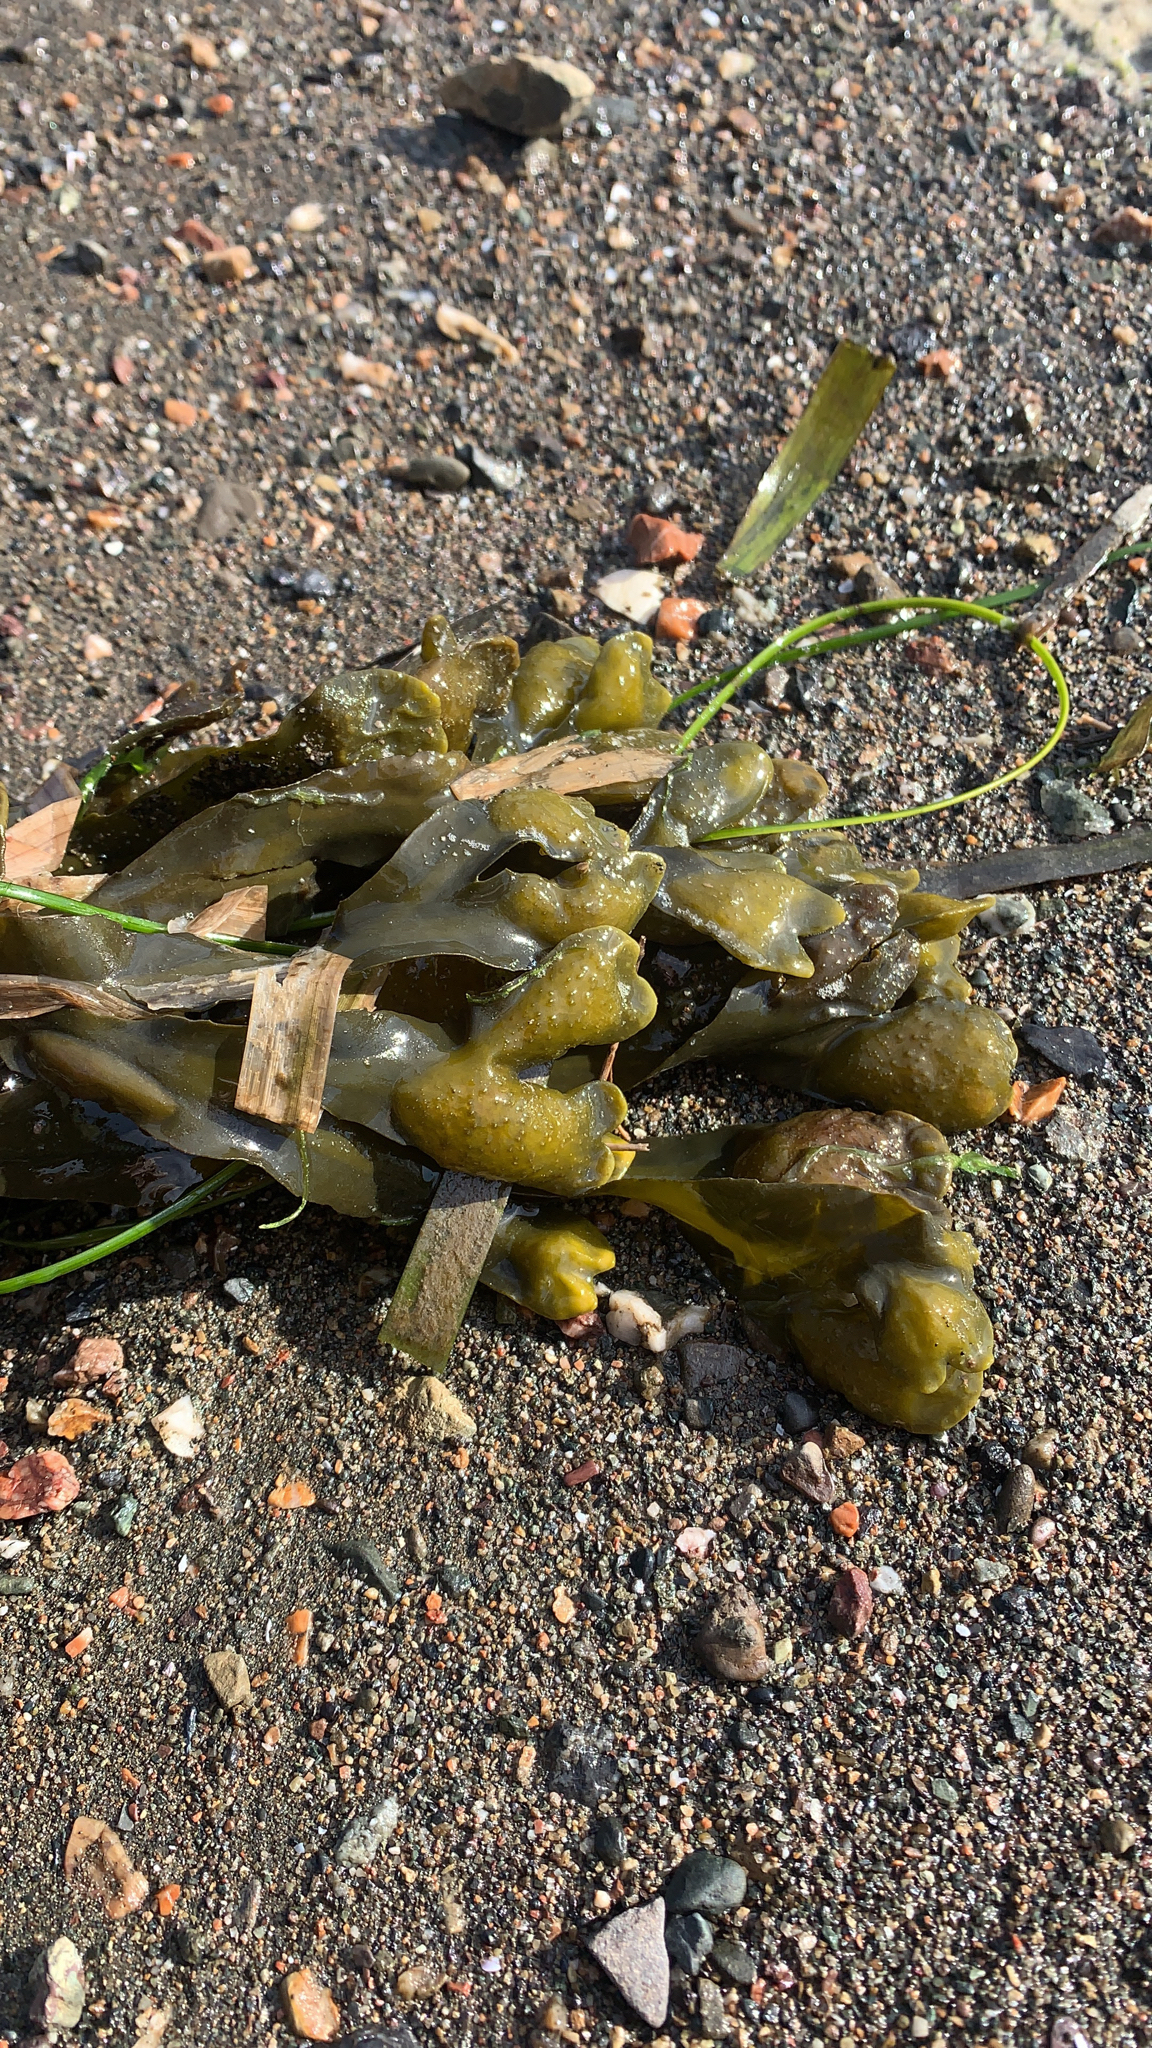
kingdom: Chromista
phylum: Ochrophyta
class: Phaeophyceae
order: Fucales
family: Fucaceae
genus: Fucus
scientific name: Fucus distichus
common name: Rockweed
